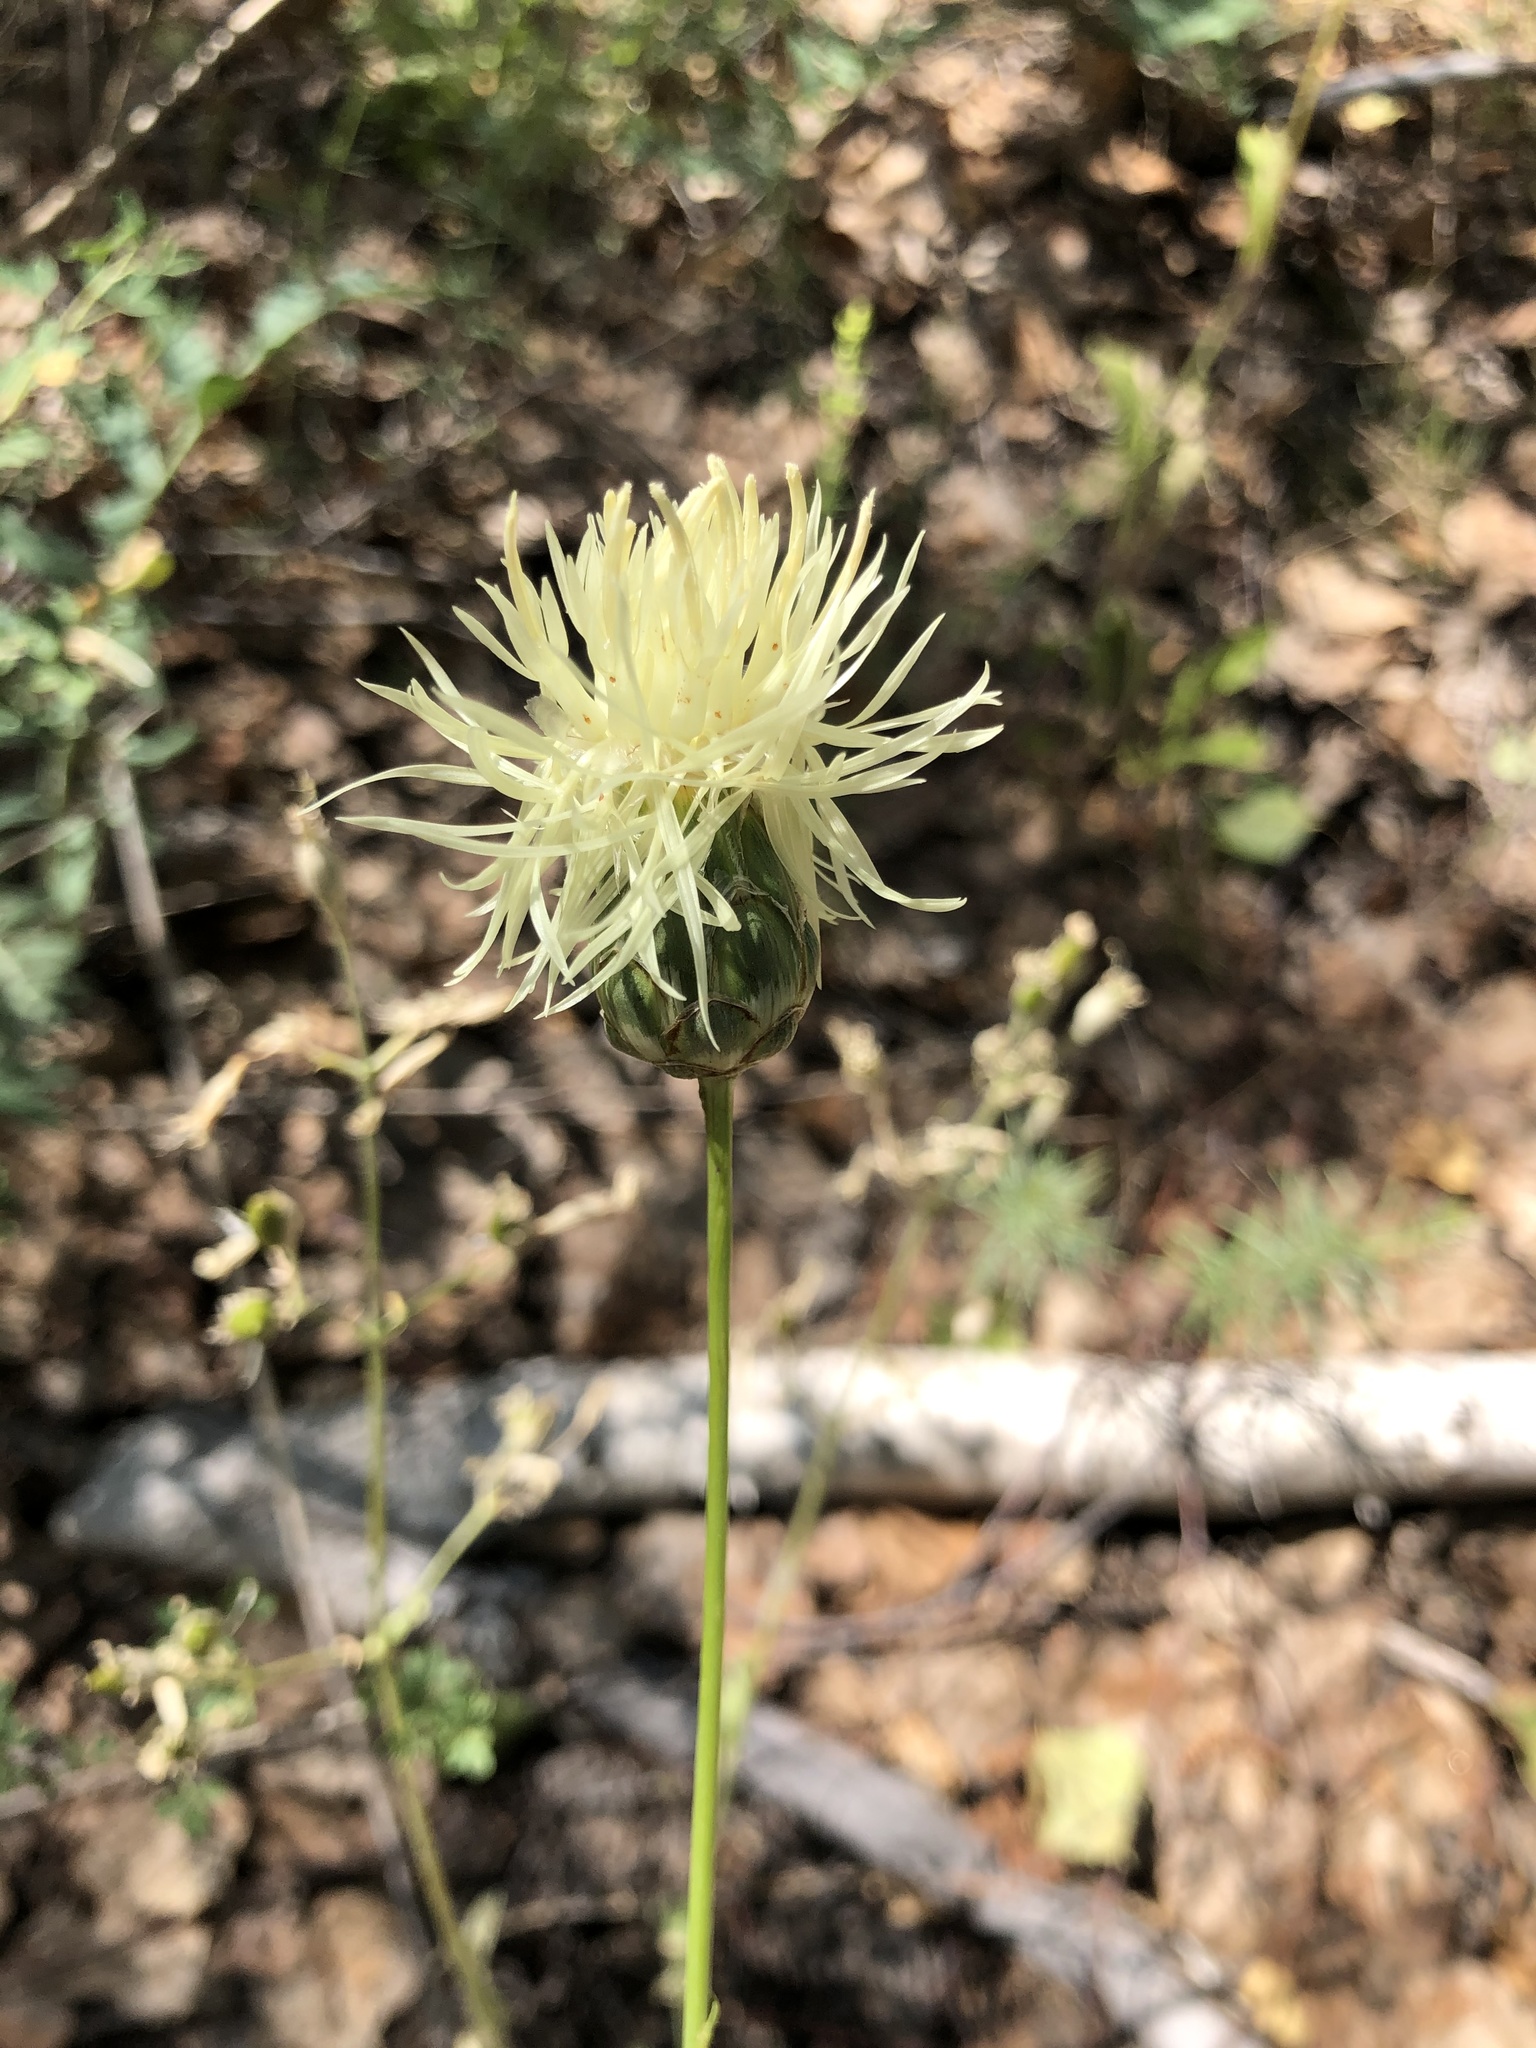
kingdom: Plantae
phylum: Tracheophyta
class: Magnoliopsida
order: Asterales
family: Asteraceae
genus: Rhaponticoides
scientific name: Rhaponticoides ruthenica
